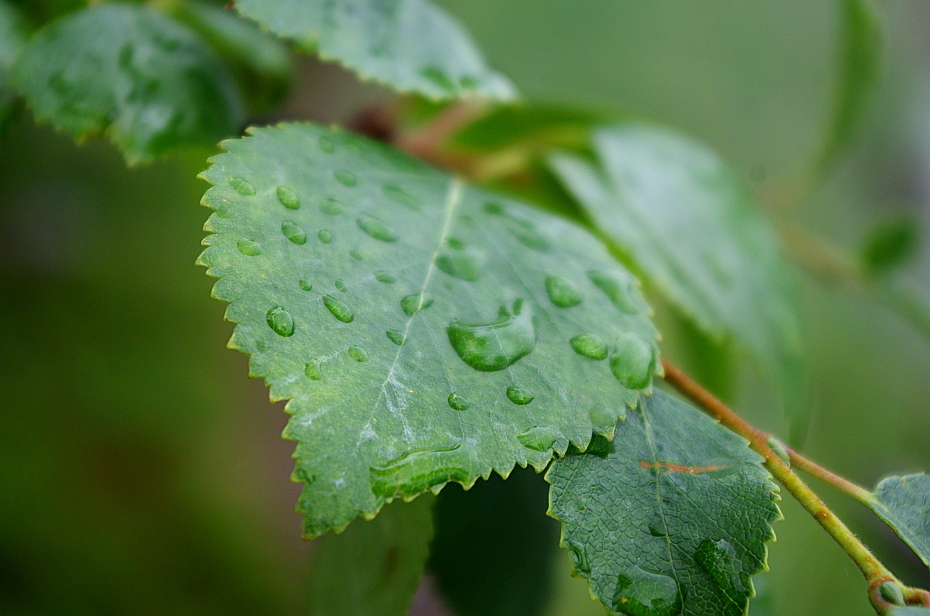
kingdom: Plantae
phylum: Tracheophyta
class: Magnoliopsida
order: Fagales
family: Betulaceae
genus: Betula
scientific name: Betula pendula
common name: Silver birch
